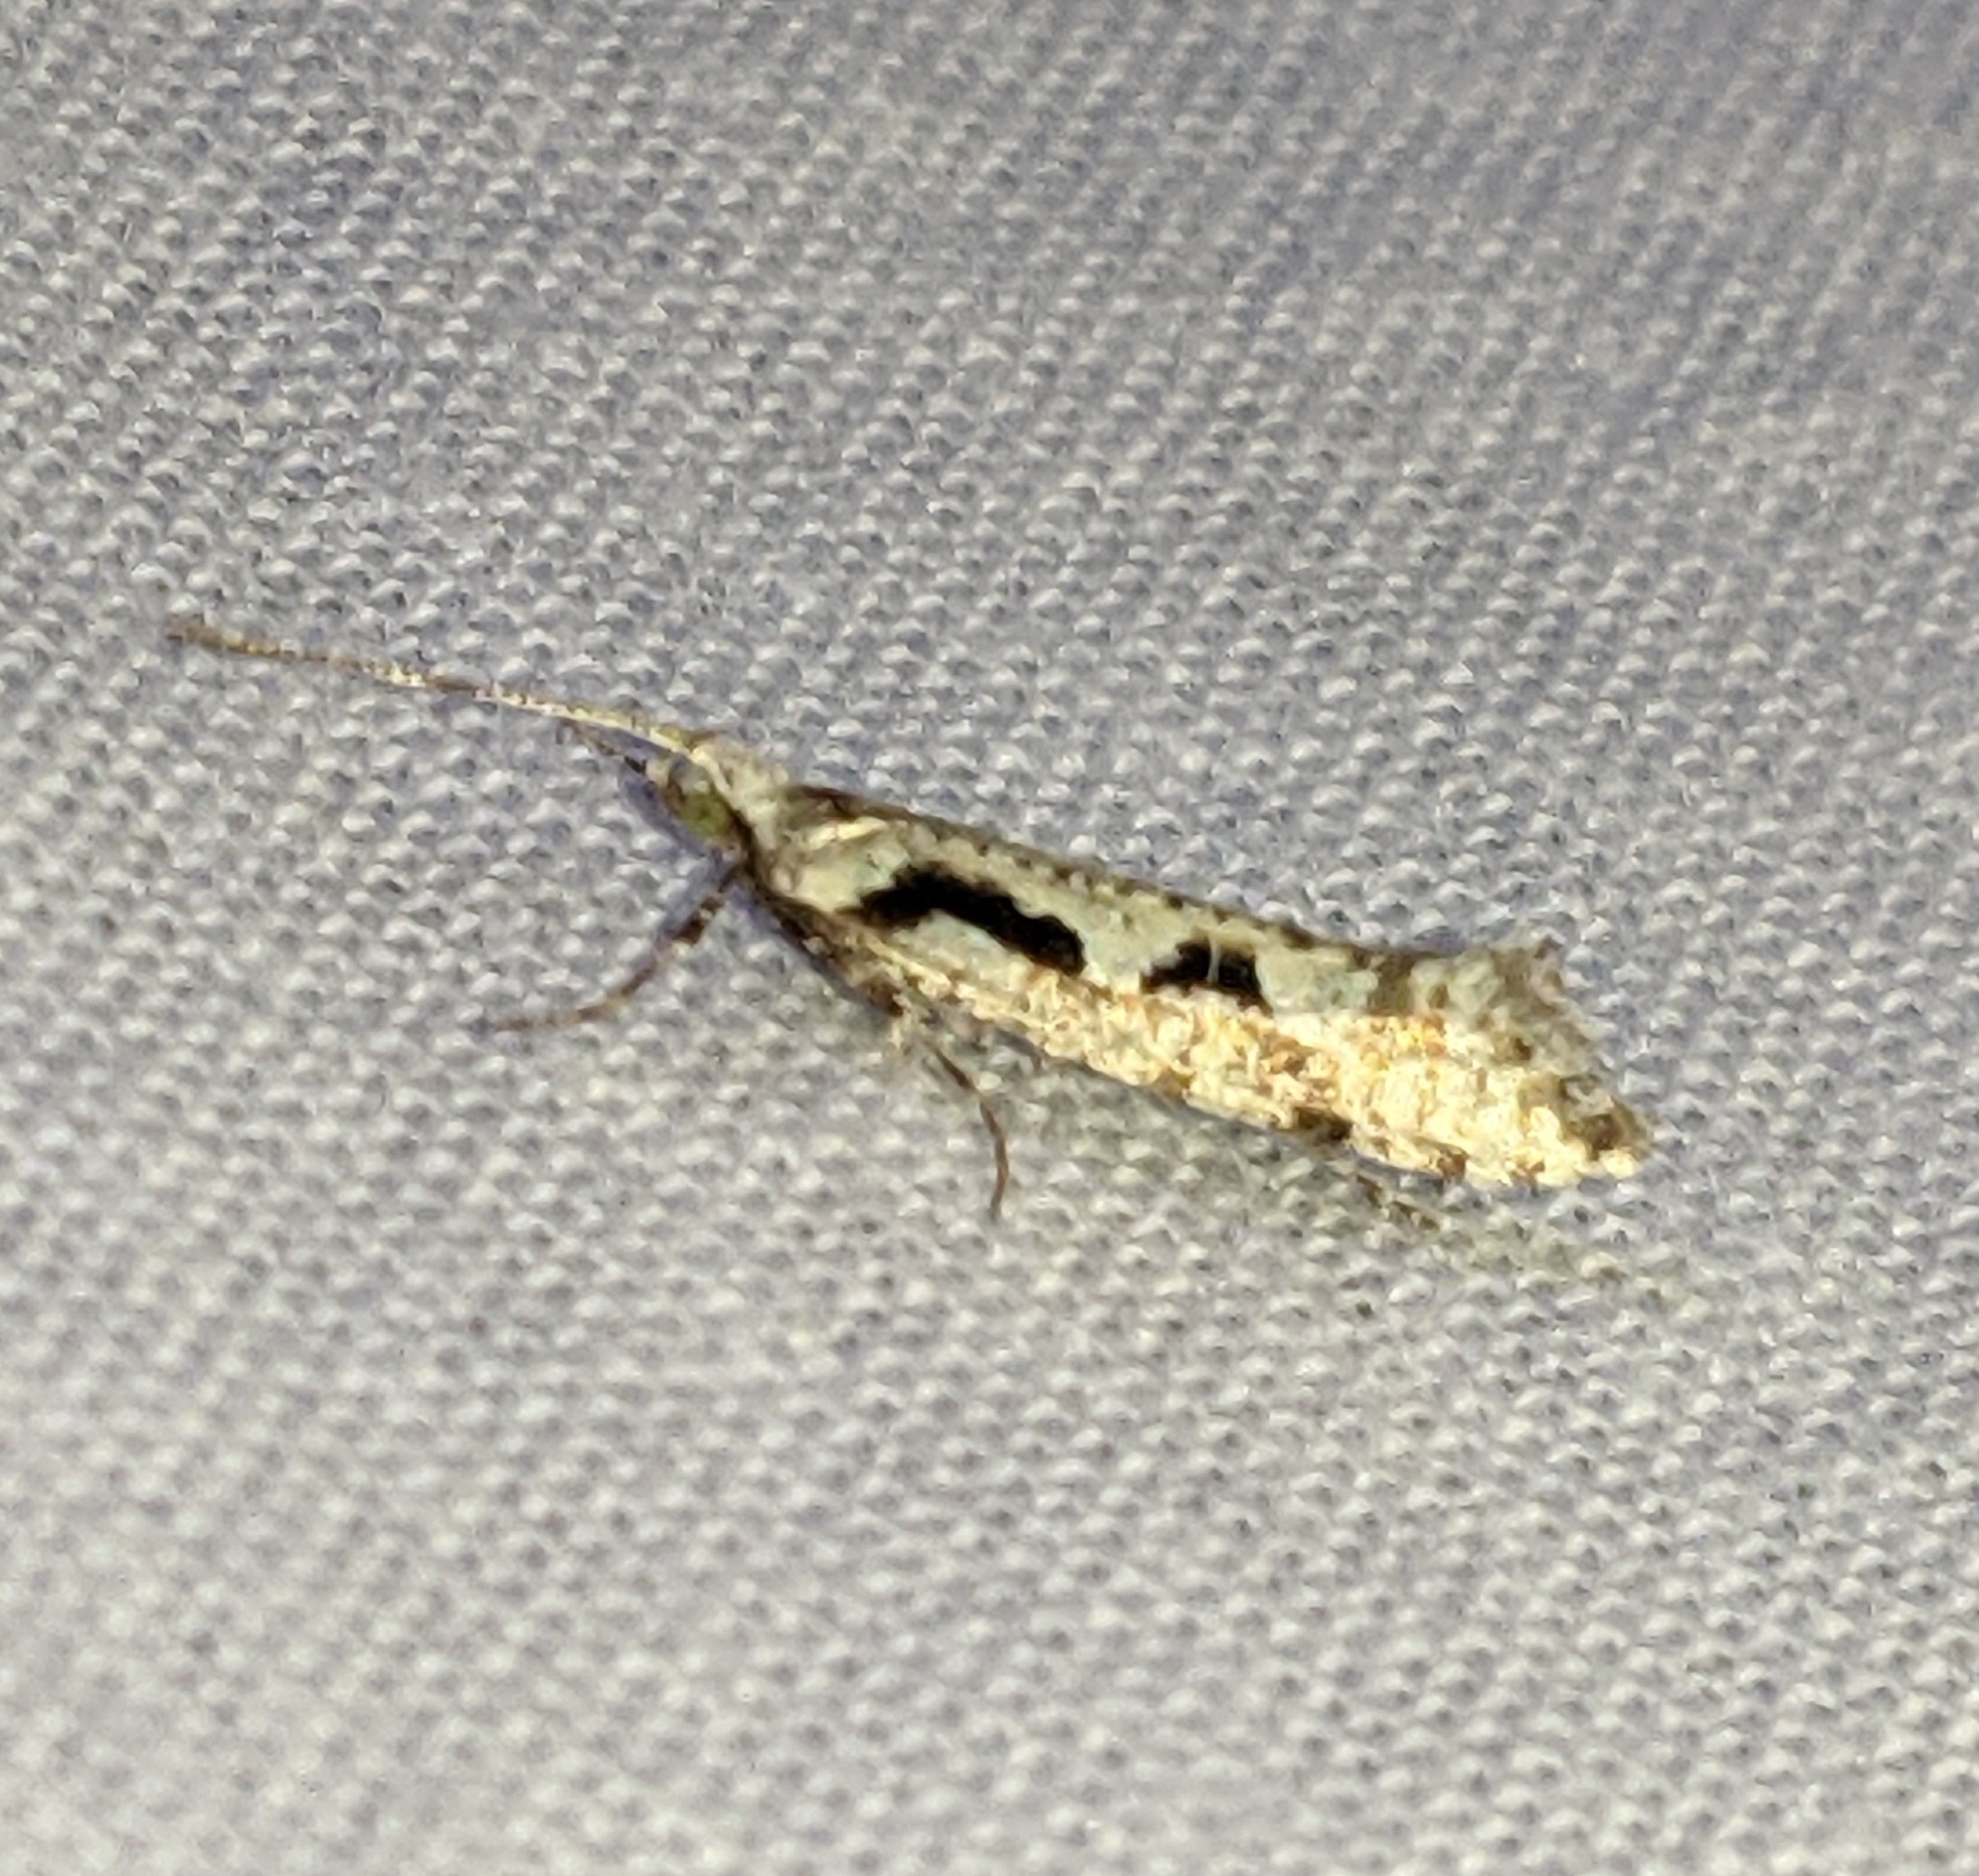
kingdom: Animalia
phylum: Arthropoda
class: Insecta
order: Lepidoptera
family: Plutellidae
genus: Rhigognostis
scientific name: Rhigognostis interrupta
